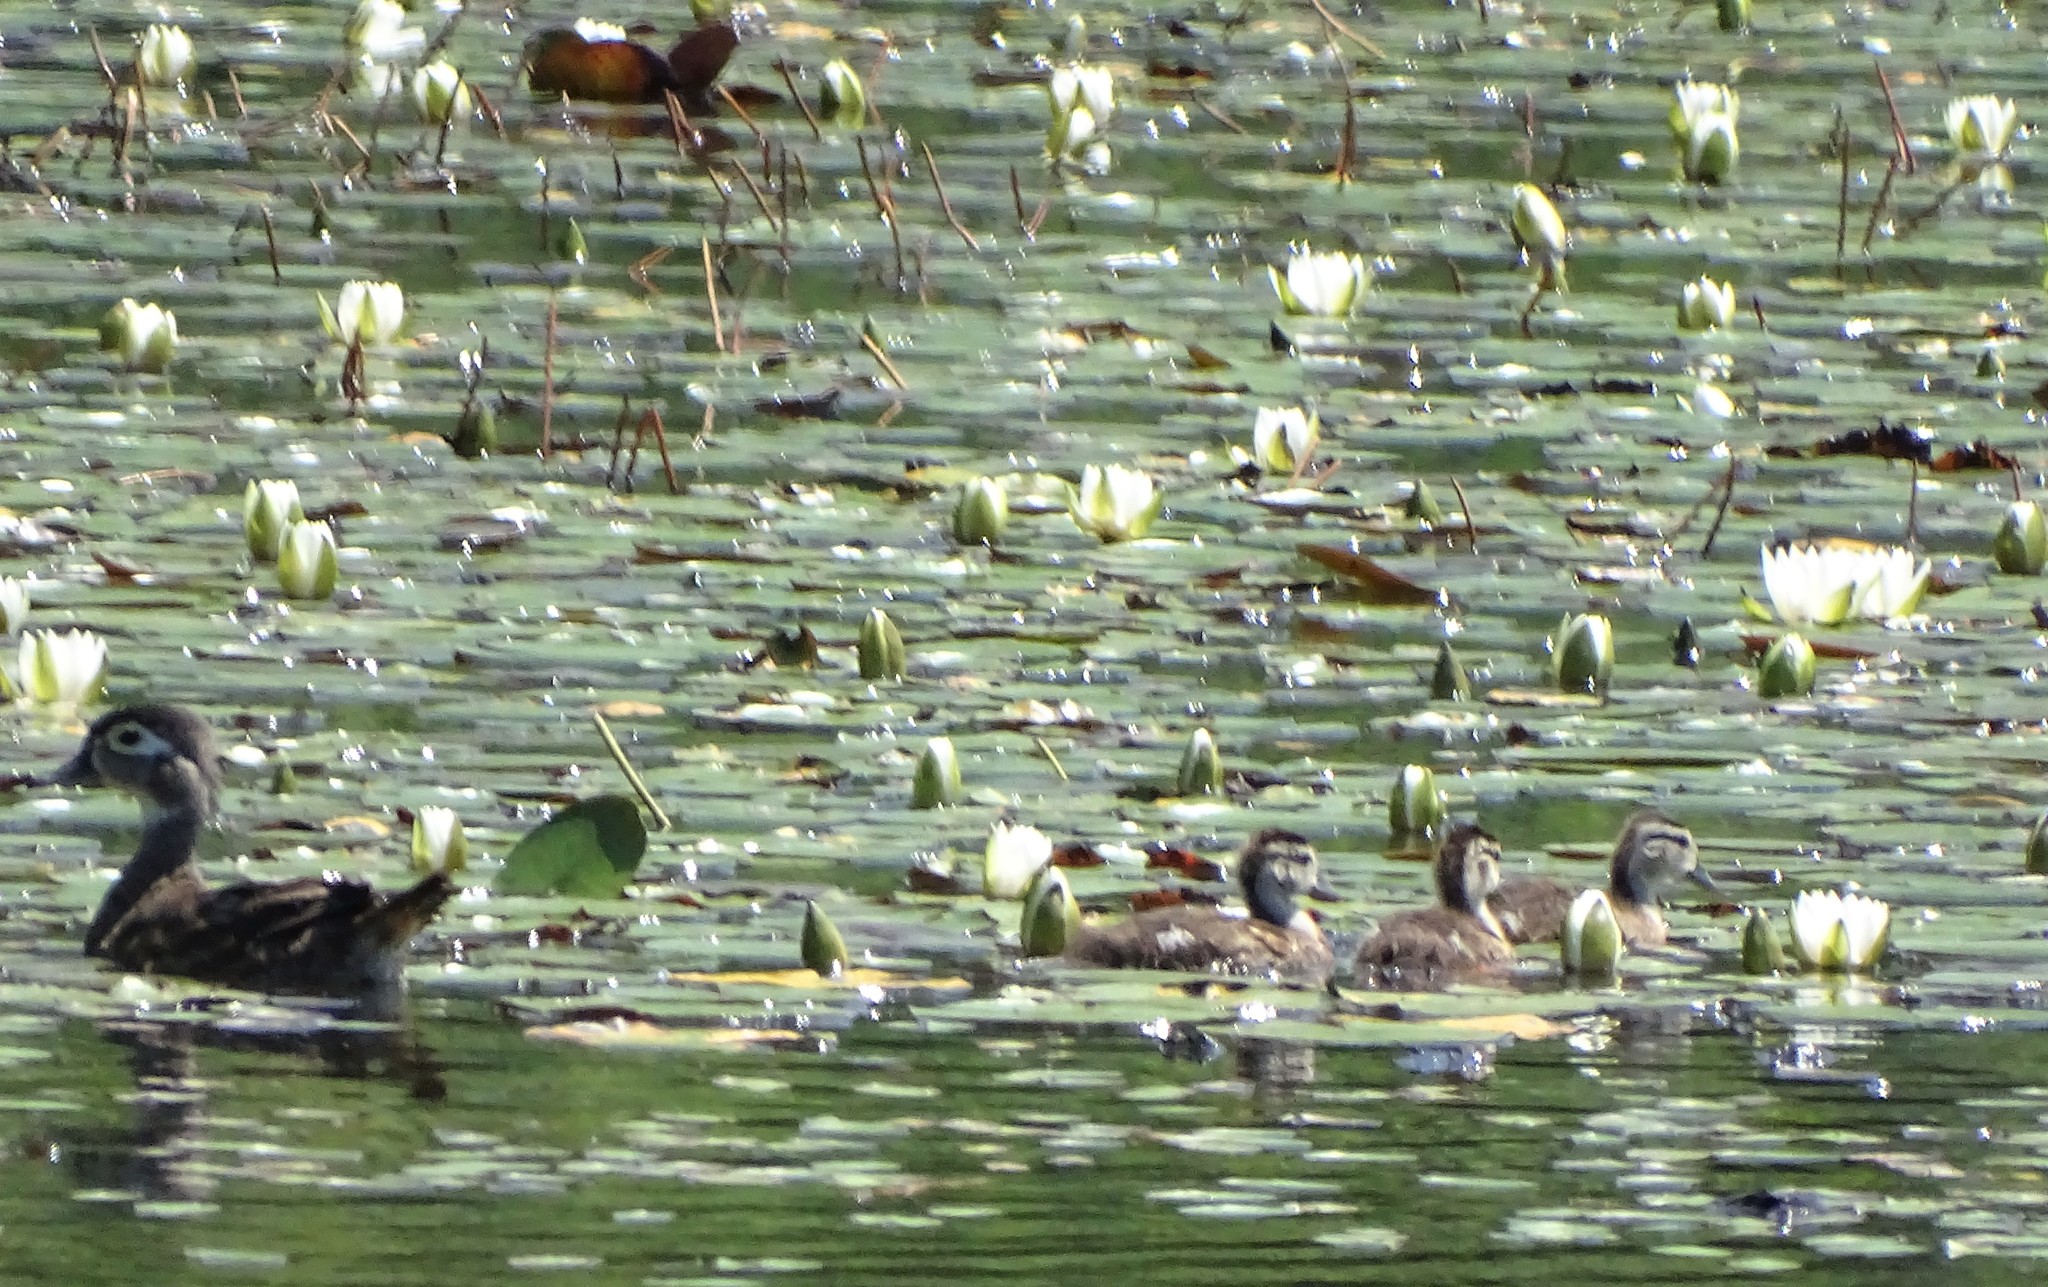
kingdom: Animalia
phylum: Chordata
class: Aves
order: Anseriformes
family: Anatidae
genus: Aix
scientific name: Aix sponsa
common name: Wood duck
